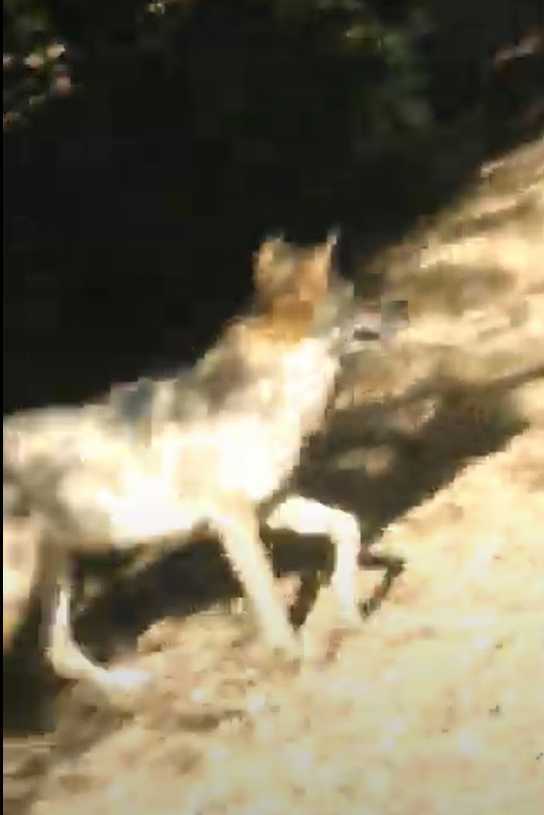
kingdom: Animalia
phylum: Chordata
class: Mammalia
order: Carnivora
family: Canidae
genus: Canis
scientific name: Canis latrans
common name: Coyote
